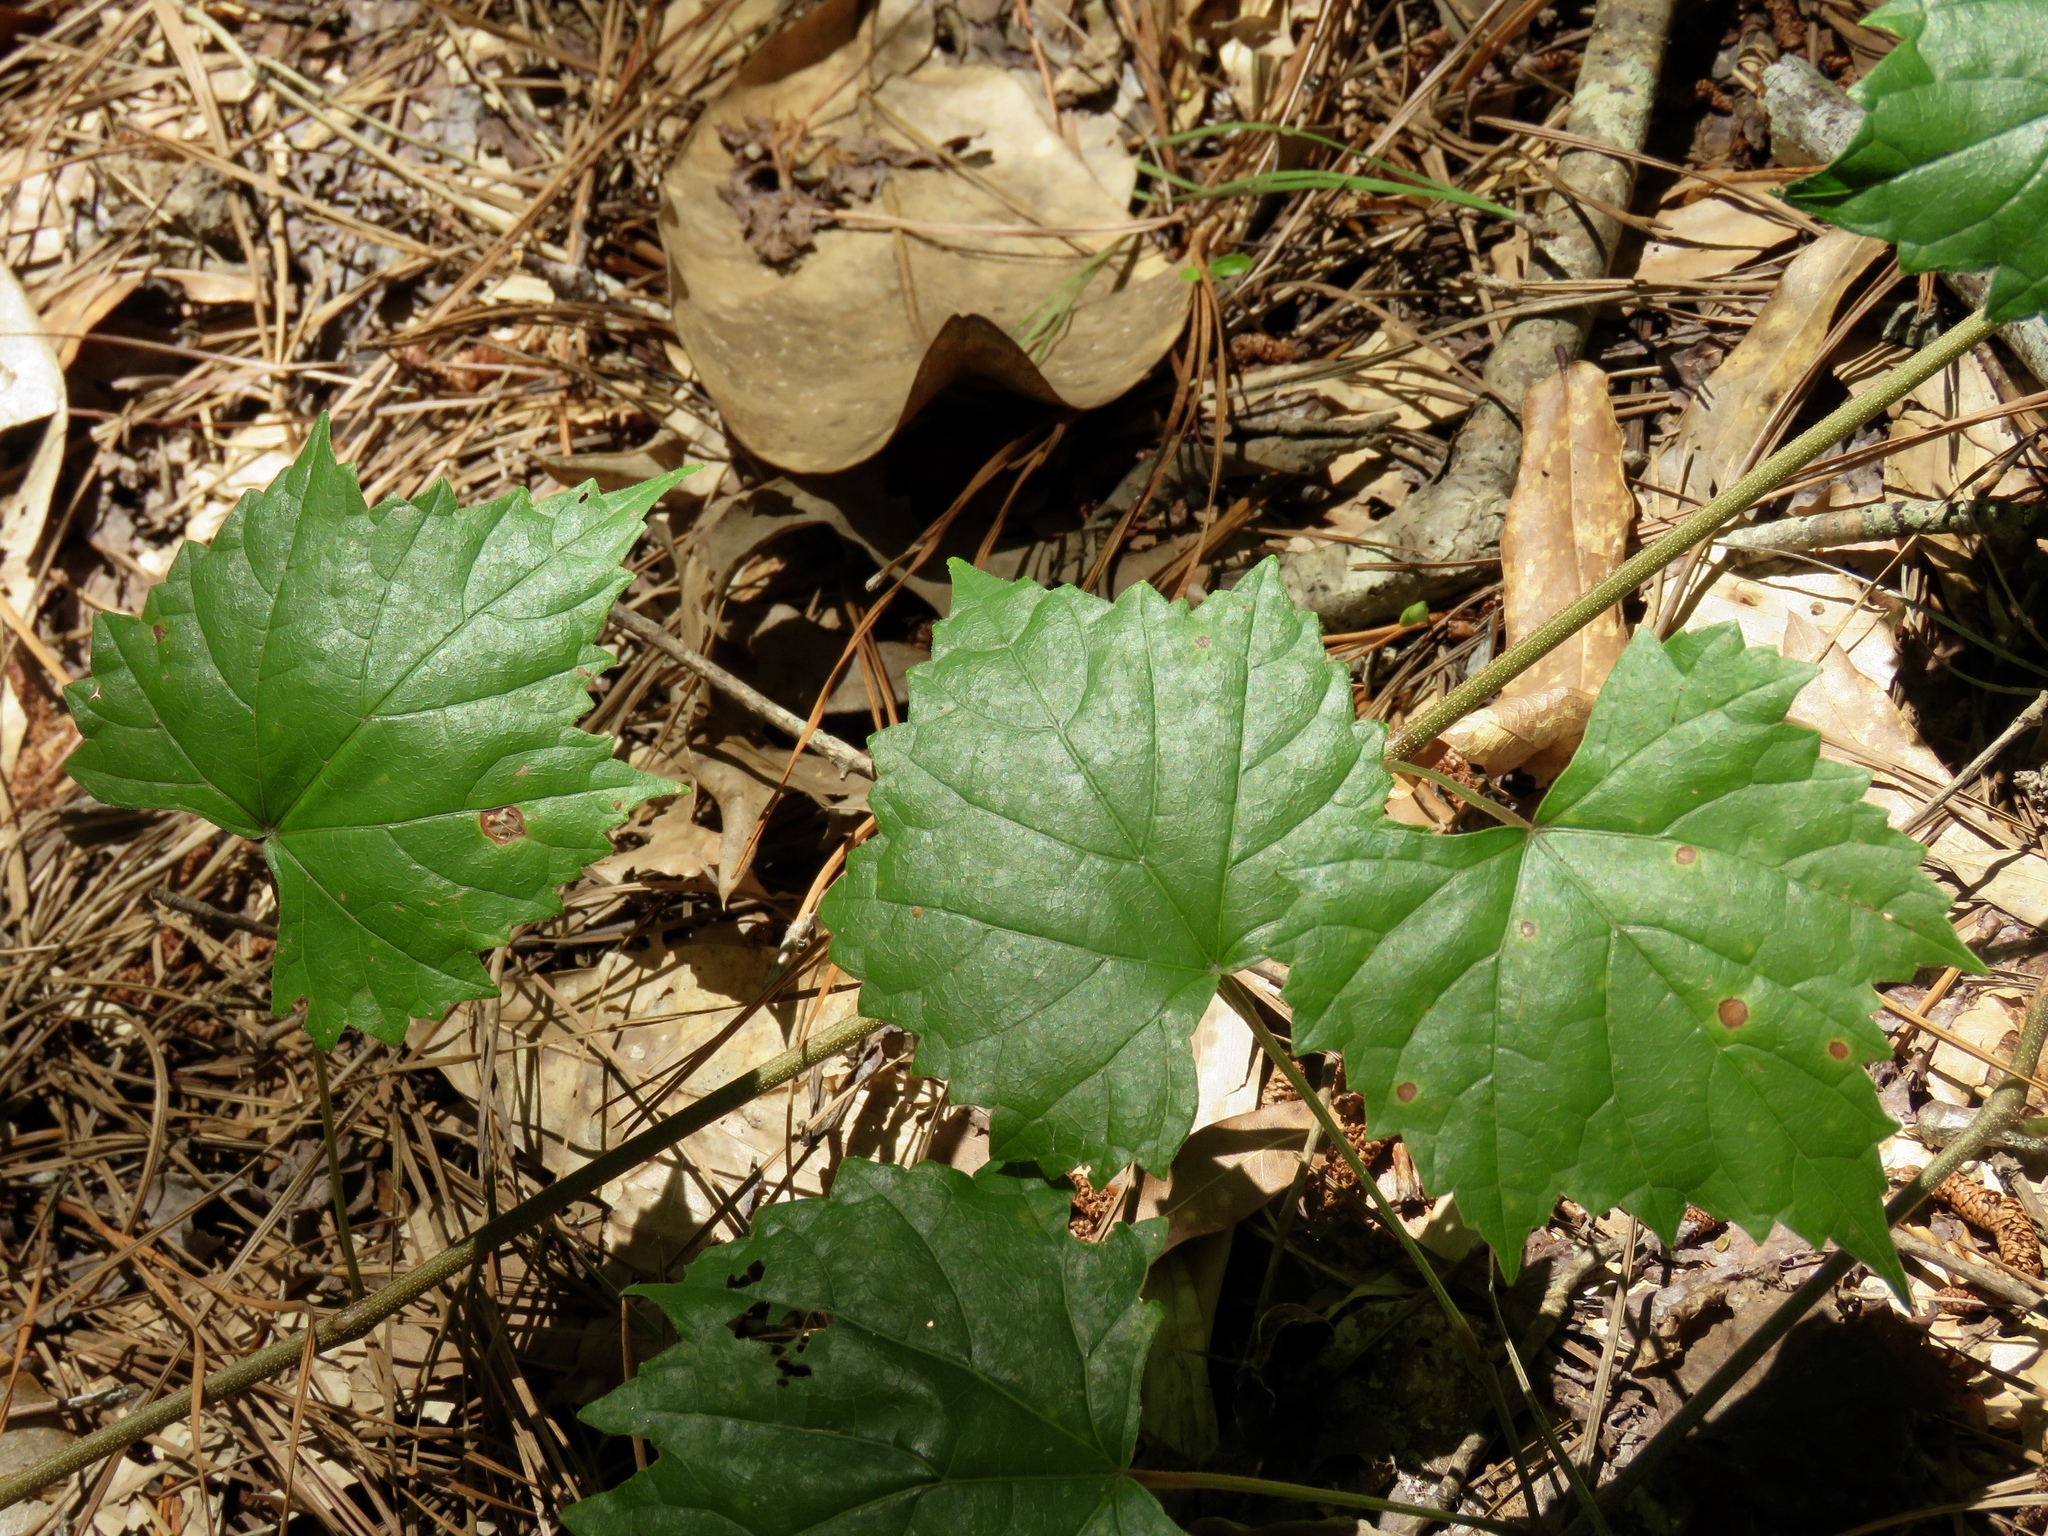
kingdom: Plantae
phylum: Tracheophyta
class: Magnoliopsida
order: Vitales
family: Vitaceae
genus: Vitis
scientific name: Vitis rotundifolia
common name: Muscadine grape
